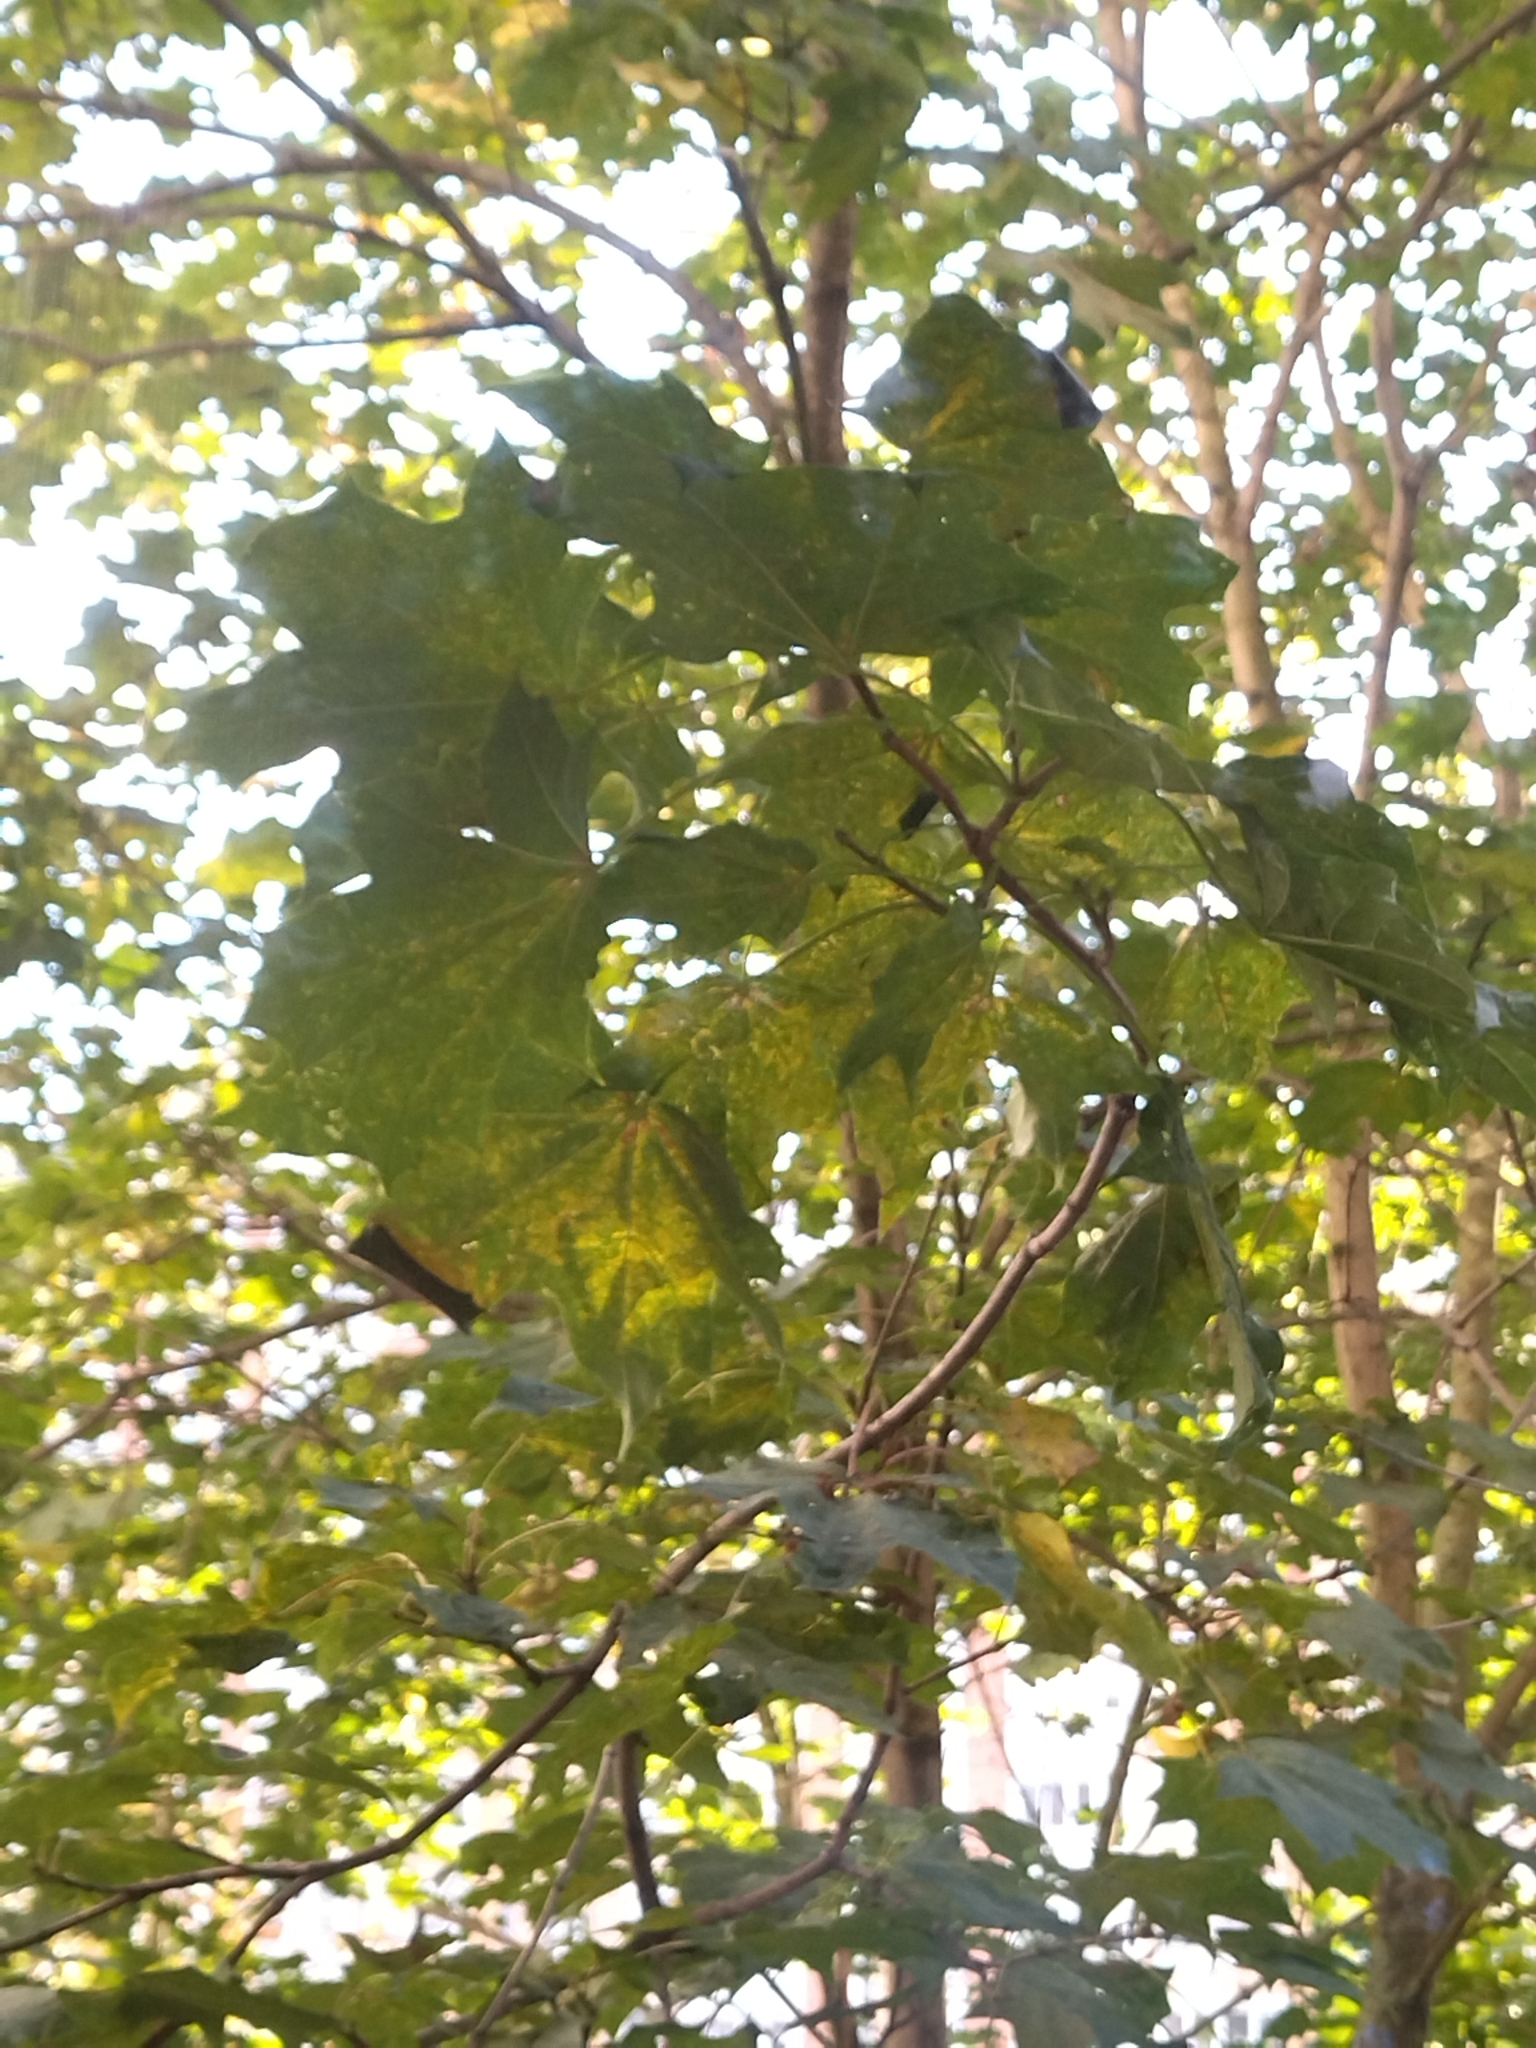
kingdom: Plantae
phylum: Tracheophyta
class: Magnoliopsida
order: Sapindales
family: Sapindaceae
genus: Acer
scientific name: Acer platanoides
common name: Norway maple
